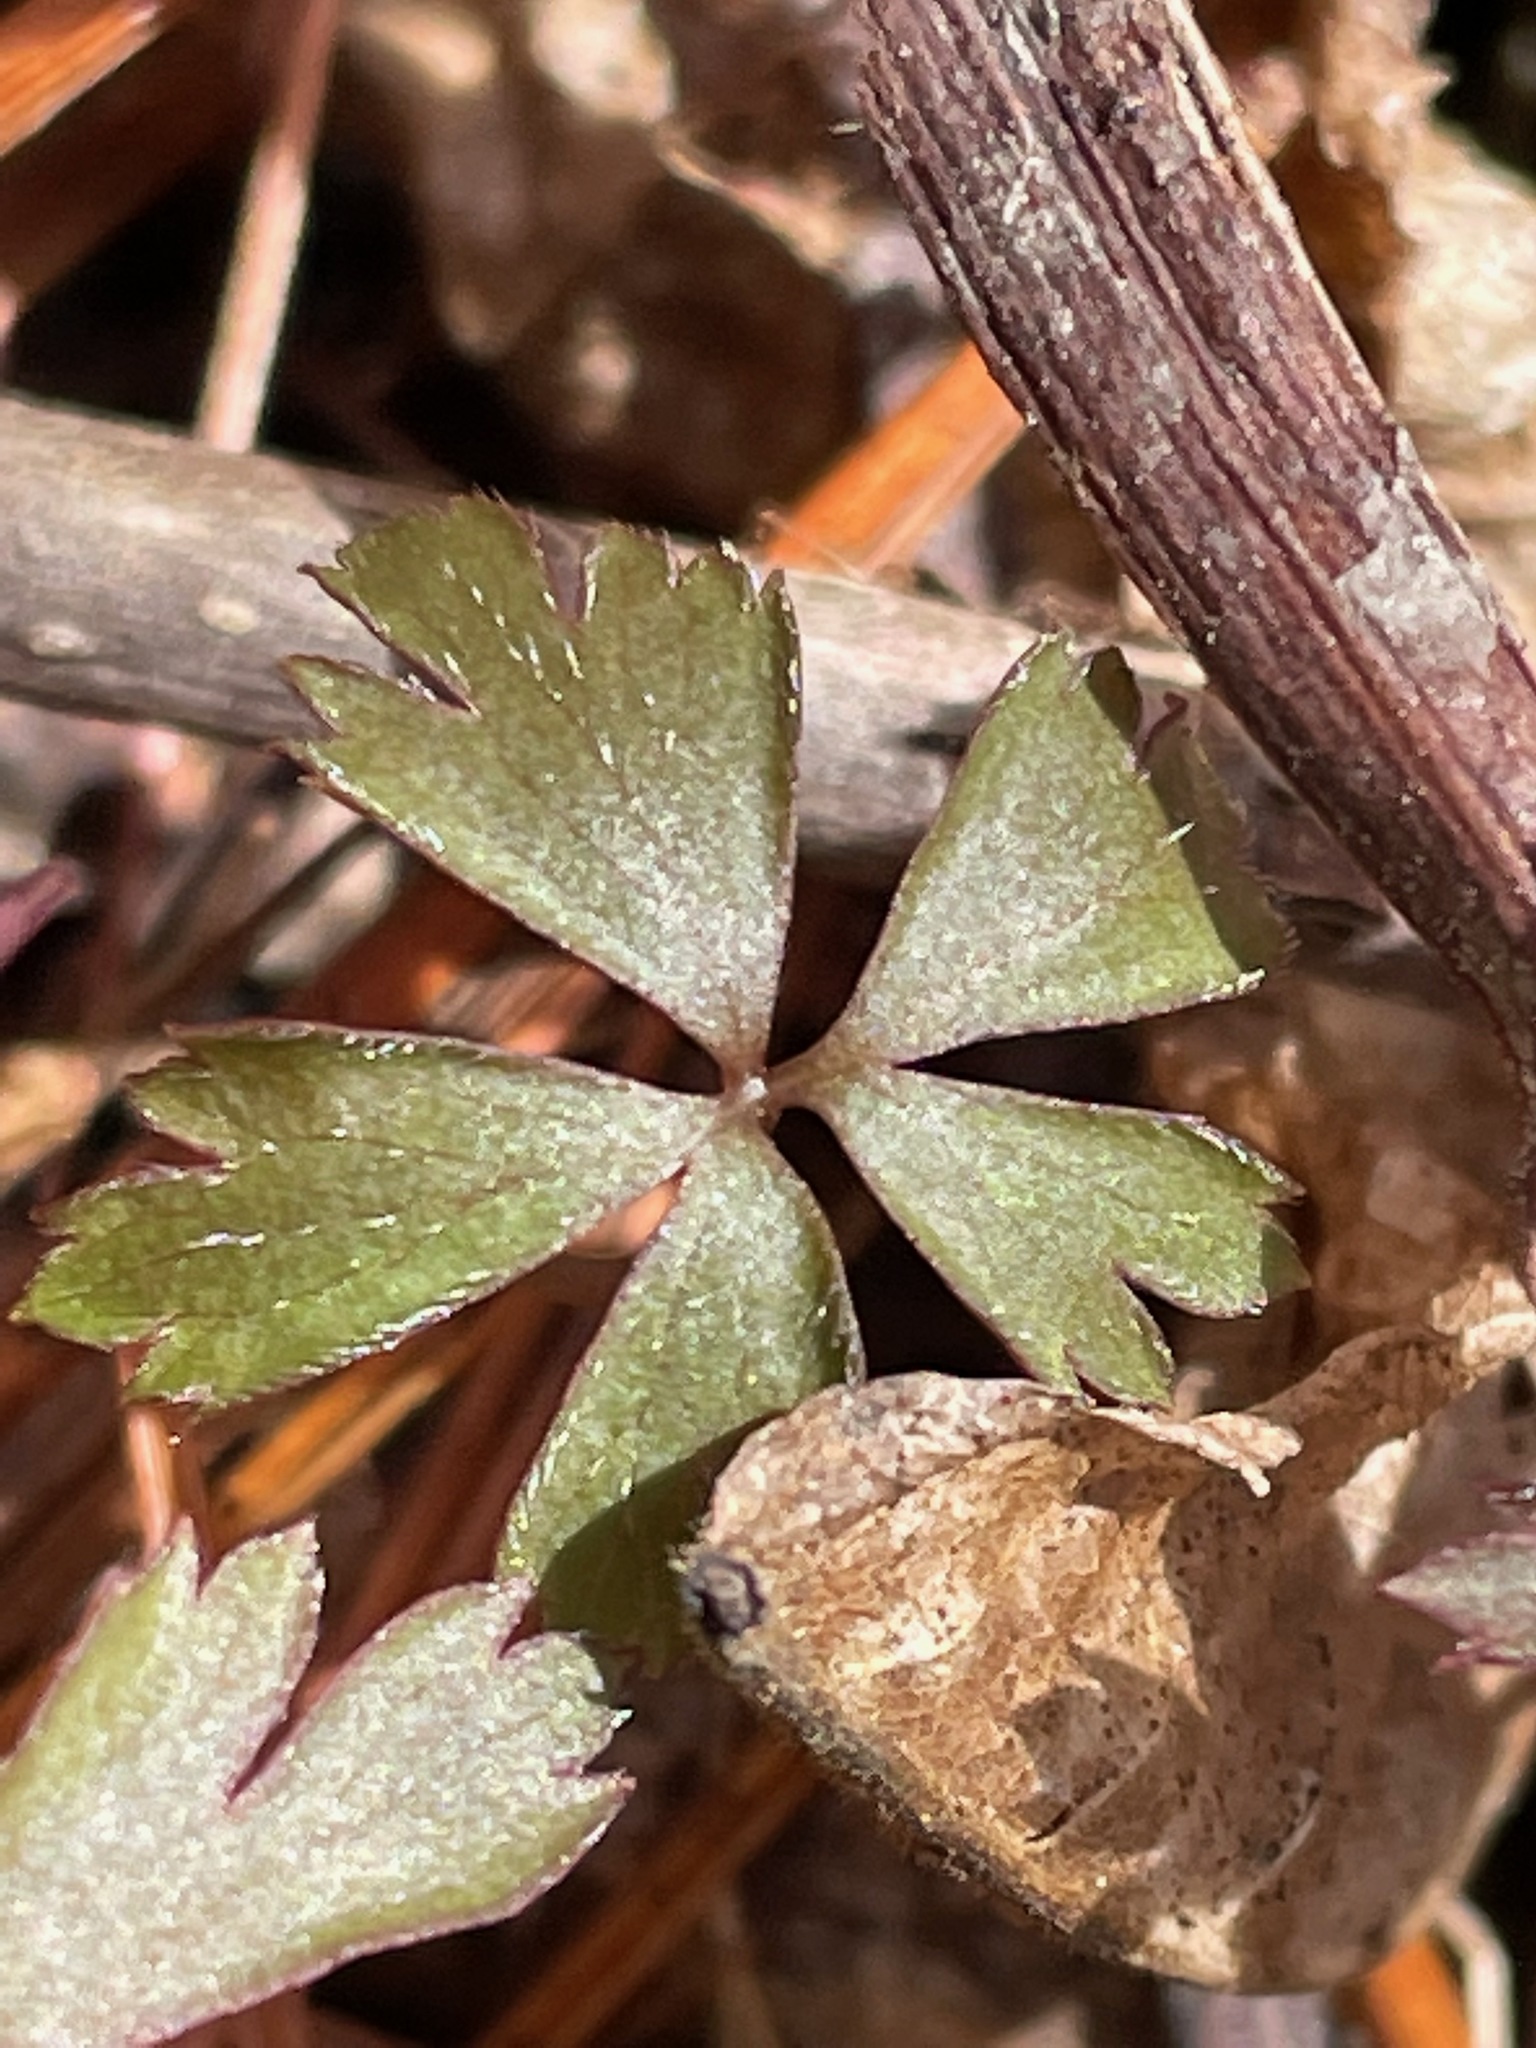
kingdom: Plantae
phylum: Tracheophyta
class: Magnoliopsida
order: Ranunculales
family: Ranunculaceae
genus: Anemone
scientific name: Anemone quinquefolia
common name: Wood anemone
